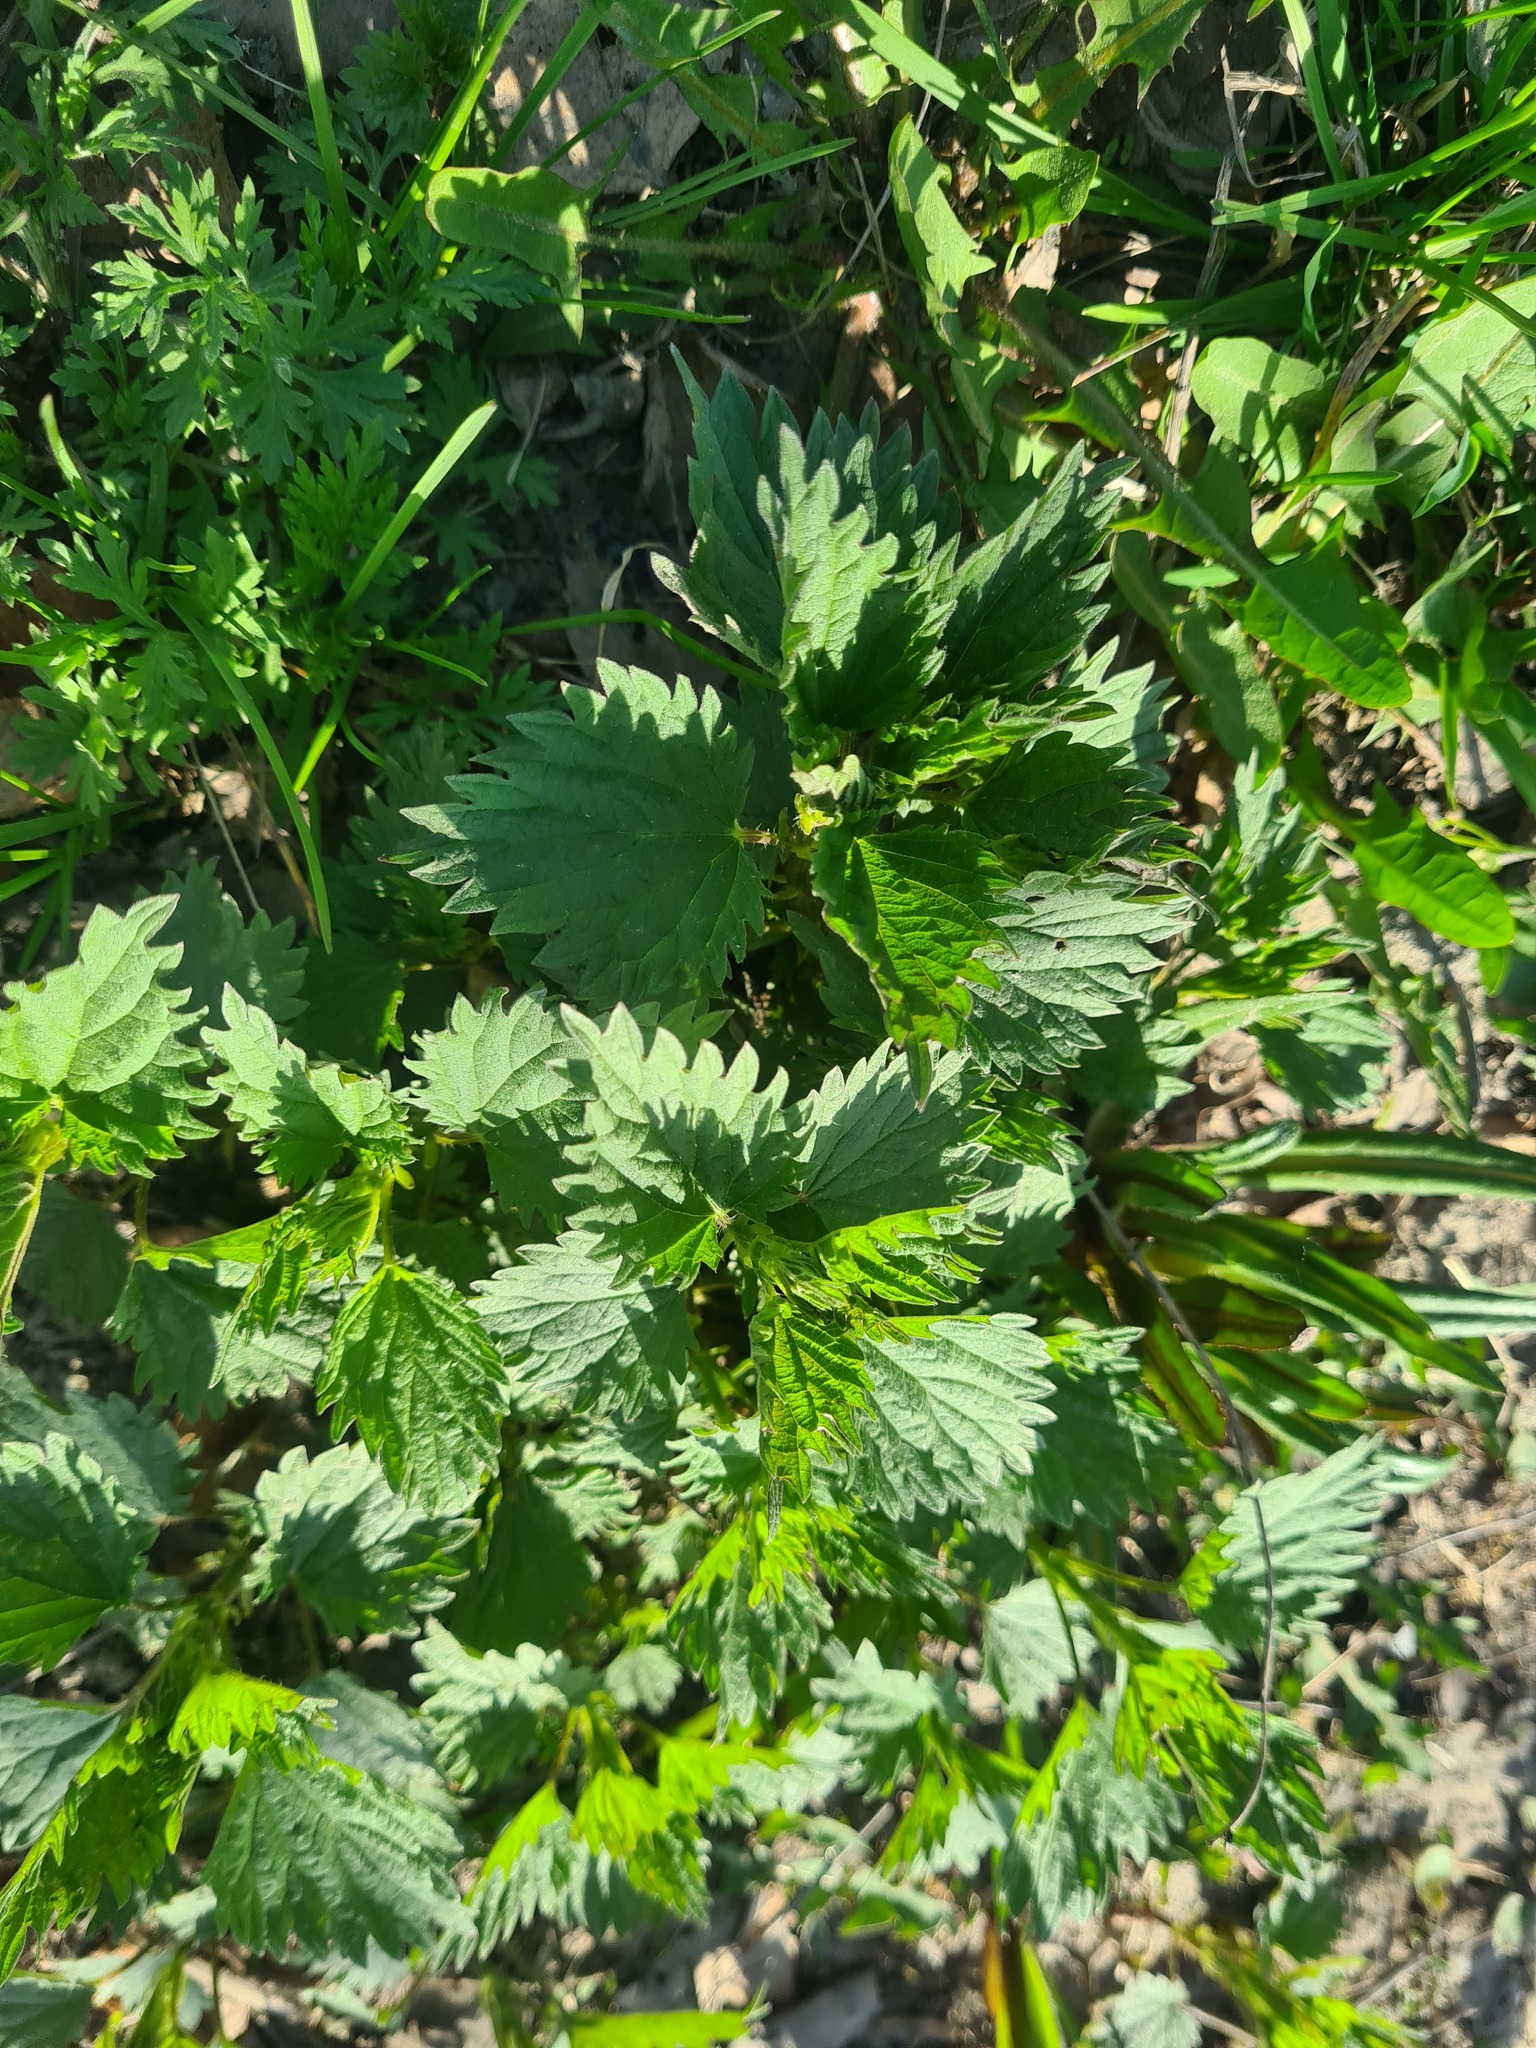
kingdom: Plantae
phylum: Tracheophyta
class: Magnoliopsida
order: Rosales
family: Urticaceae
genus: Urtica
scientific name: Urtica dioica
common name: Common nettle
